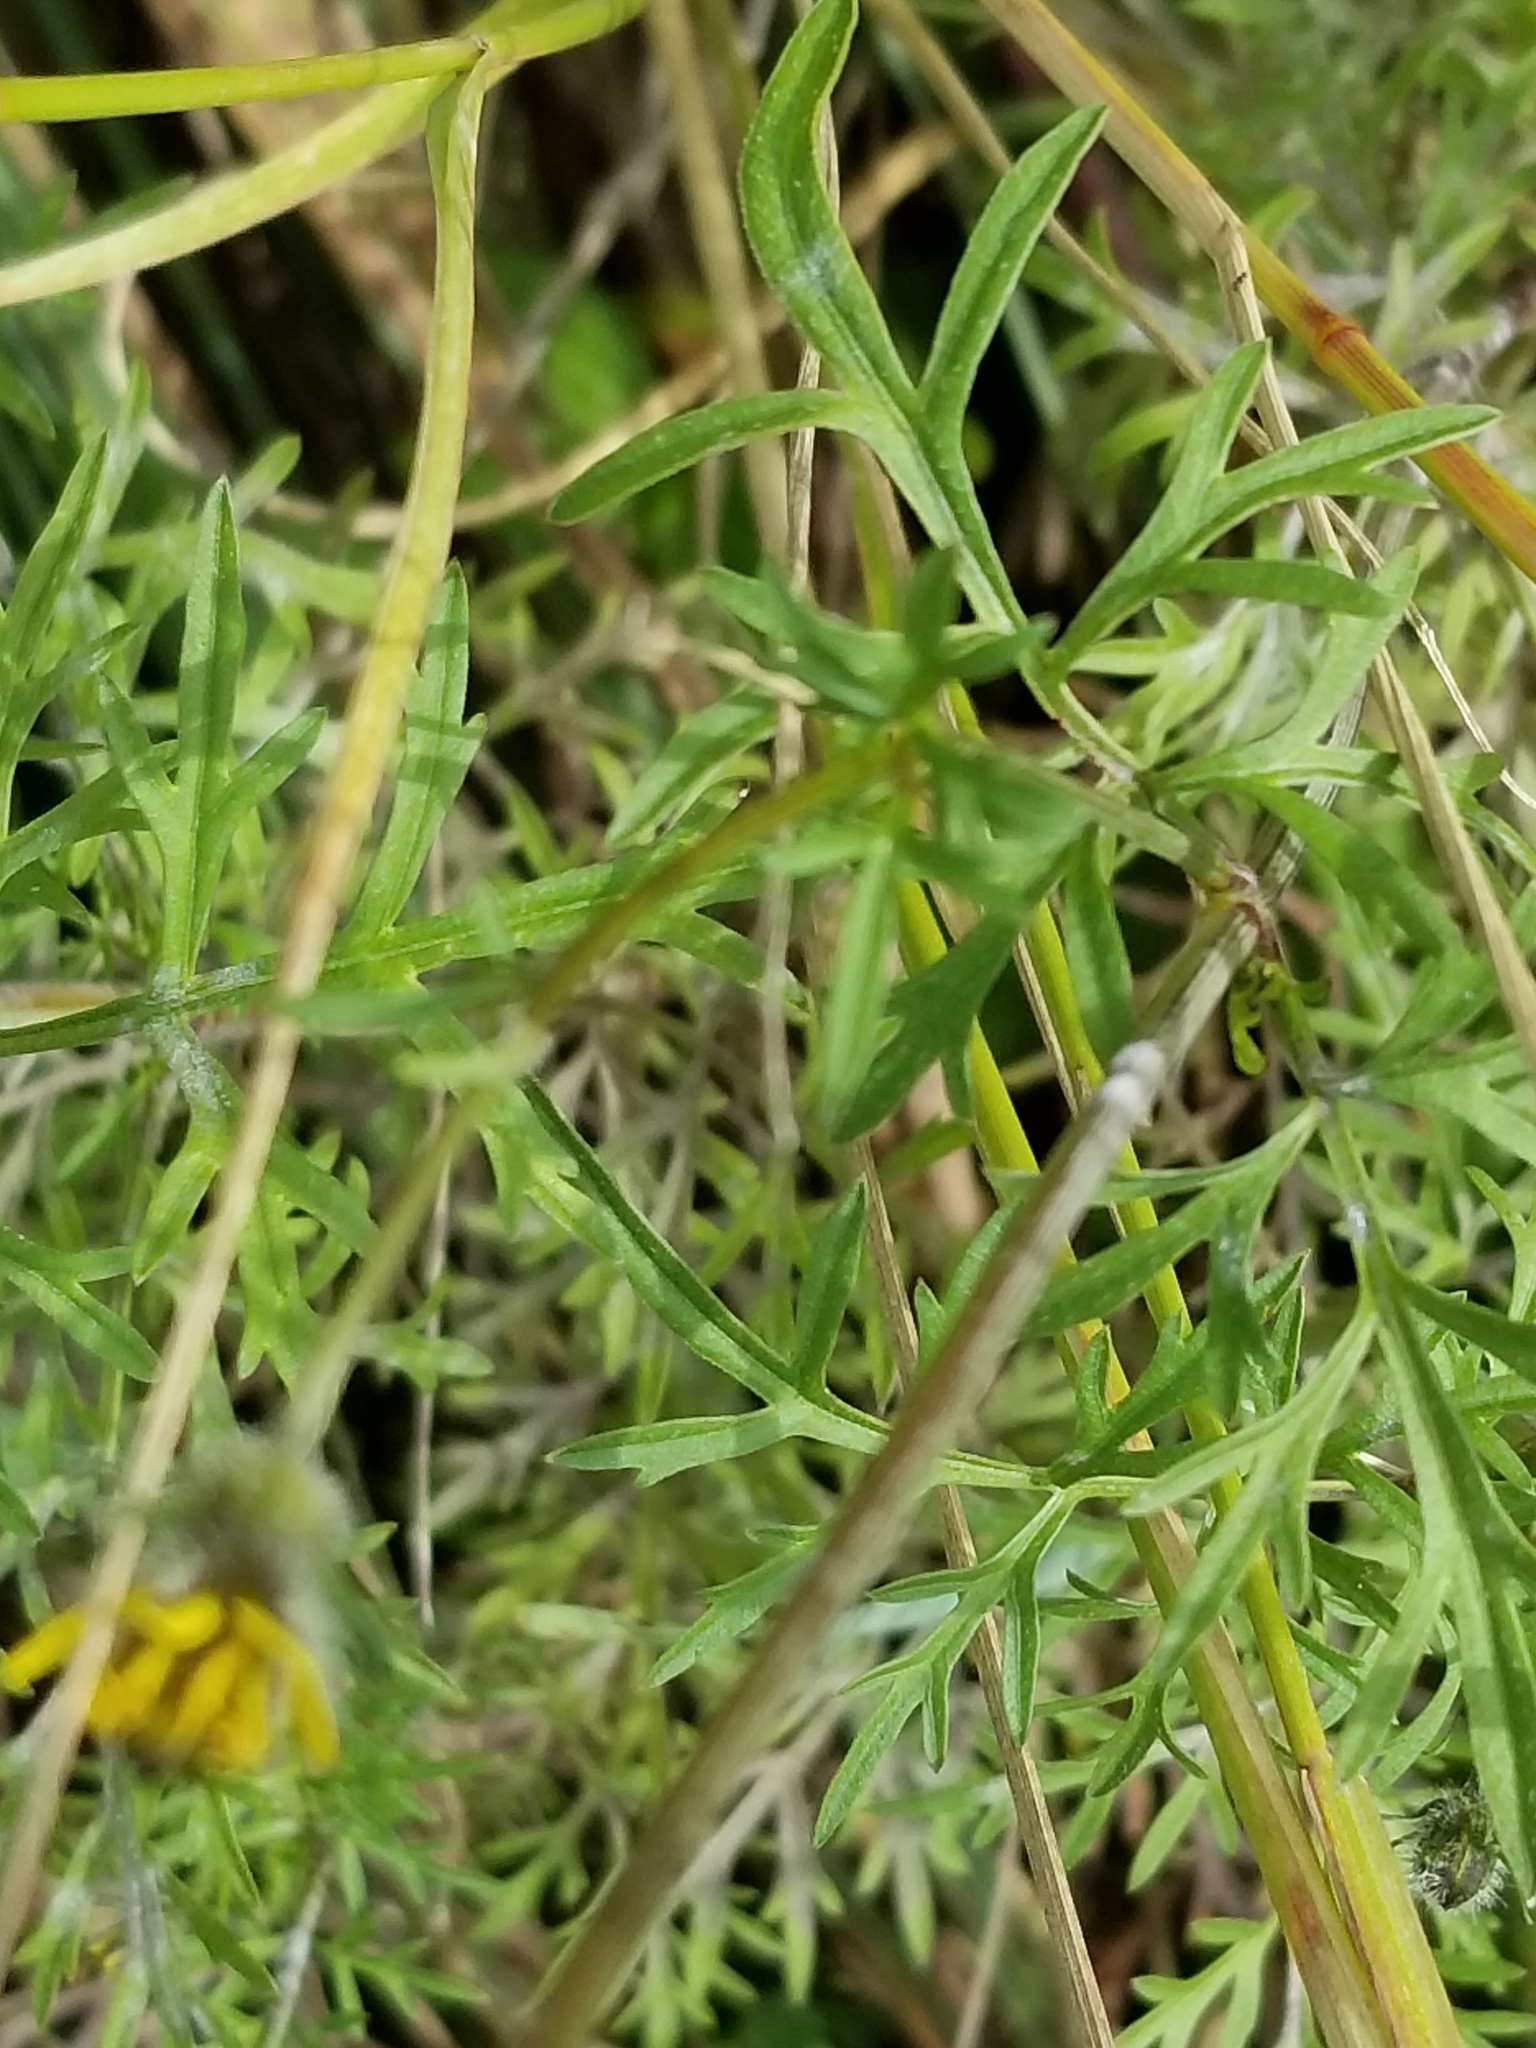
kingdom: Plantae
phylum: Tracheophyta
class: Magnoliopsida
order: Asterales
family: Asteraceae
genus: Bidens
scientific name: Bidens bipinnata
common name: Spanish-needles
